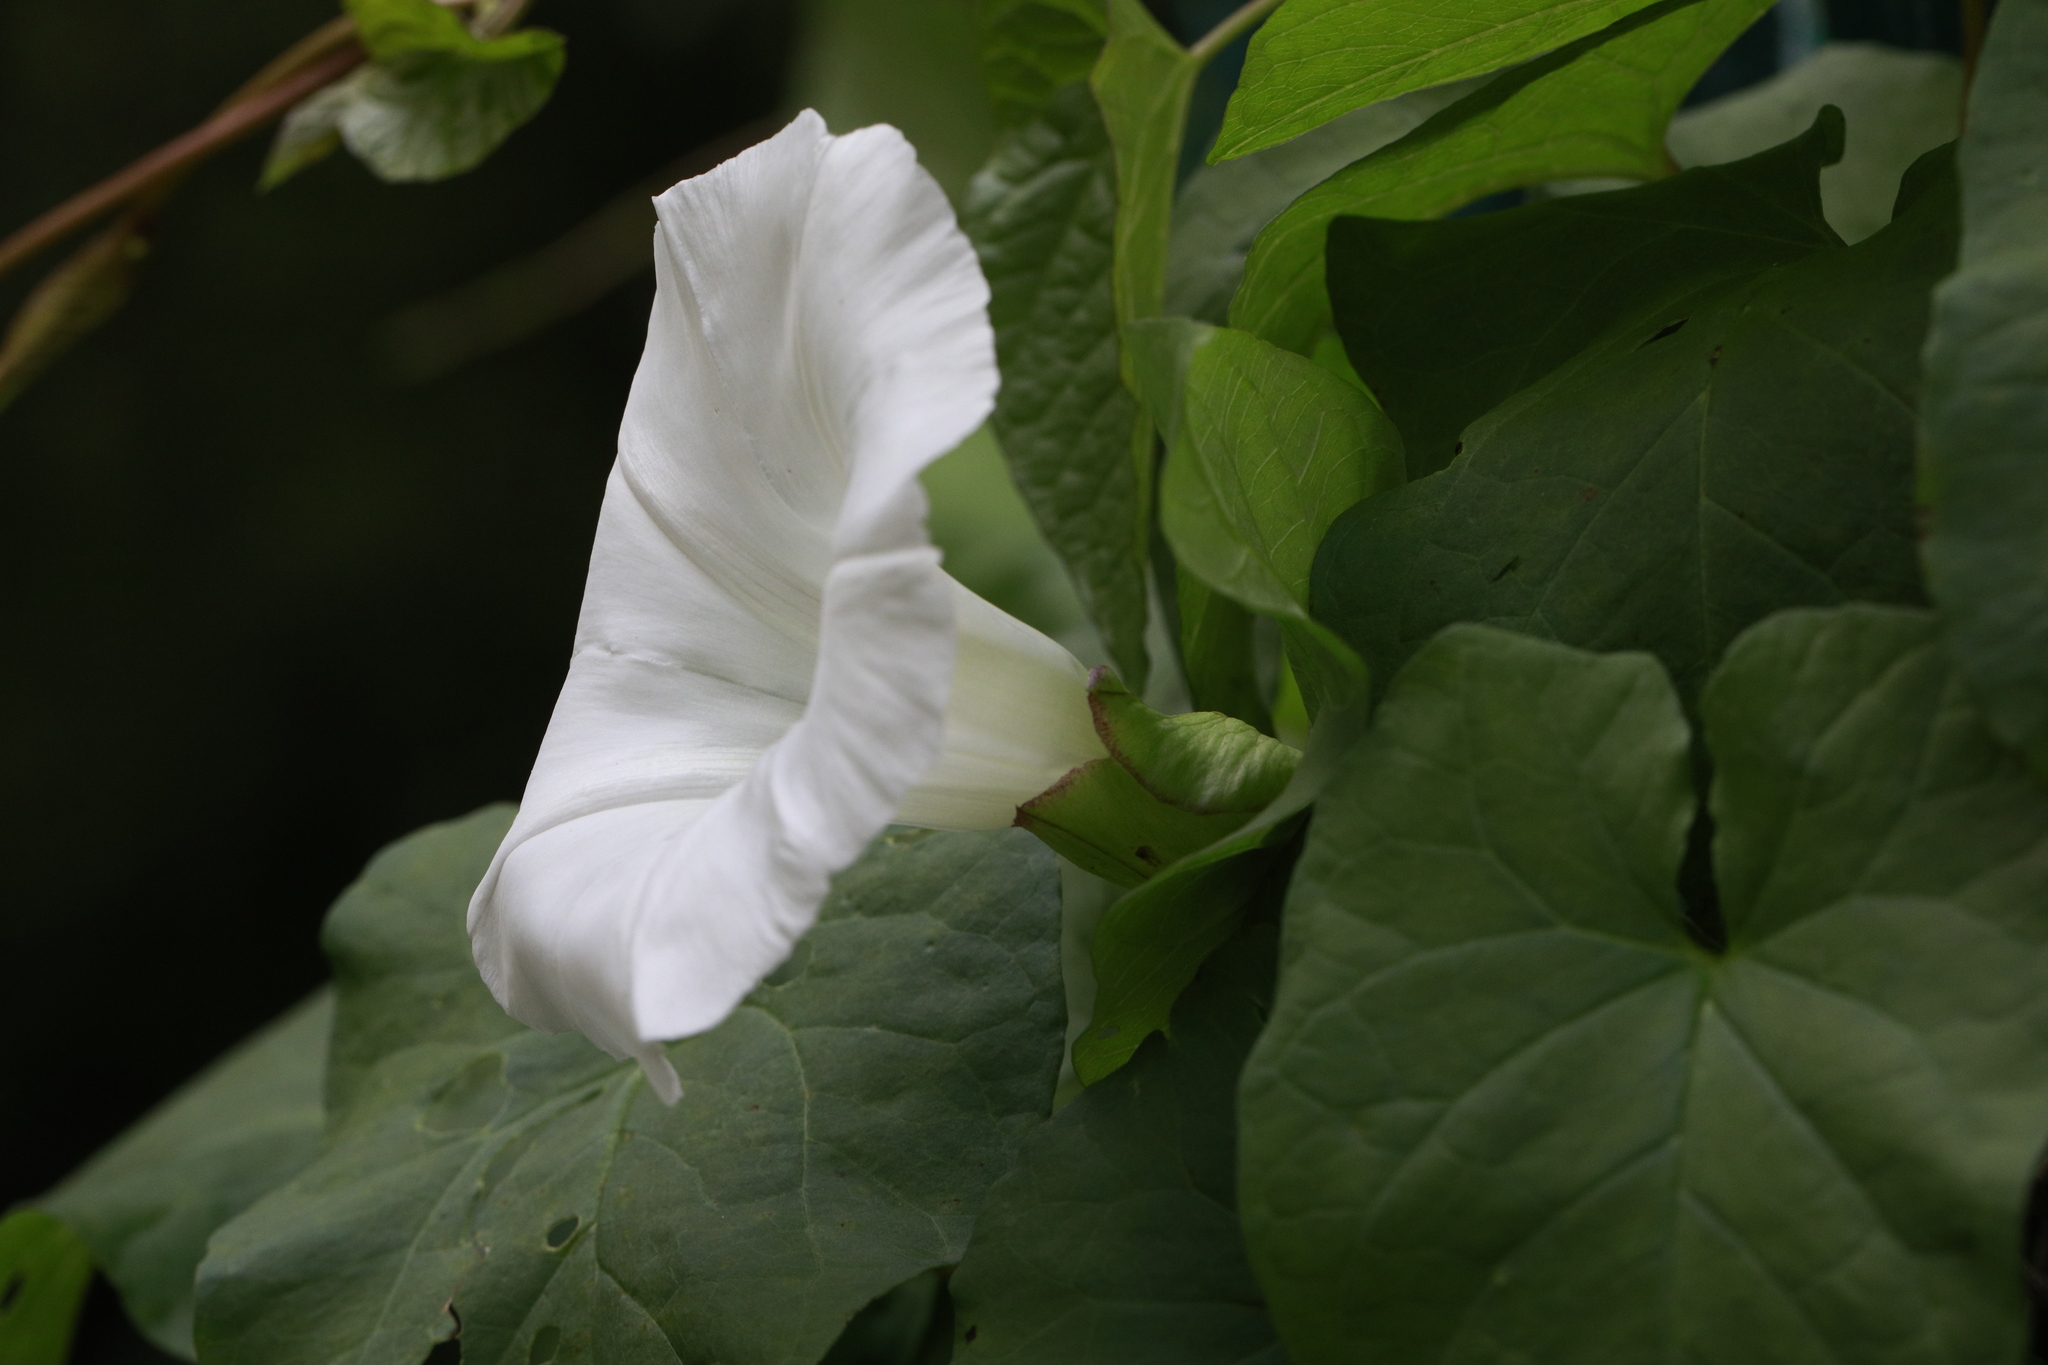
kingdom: Plantae
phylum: Tracheophyta
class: Magnoliopsida
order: Solanales
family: Convolvulaceae
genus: Calystegia
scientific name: Calystegia silvatica
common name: Large bindweed
